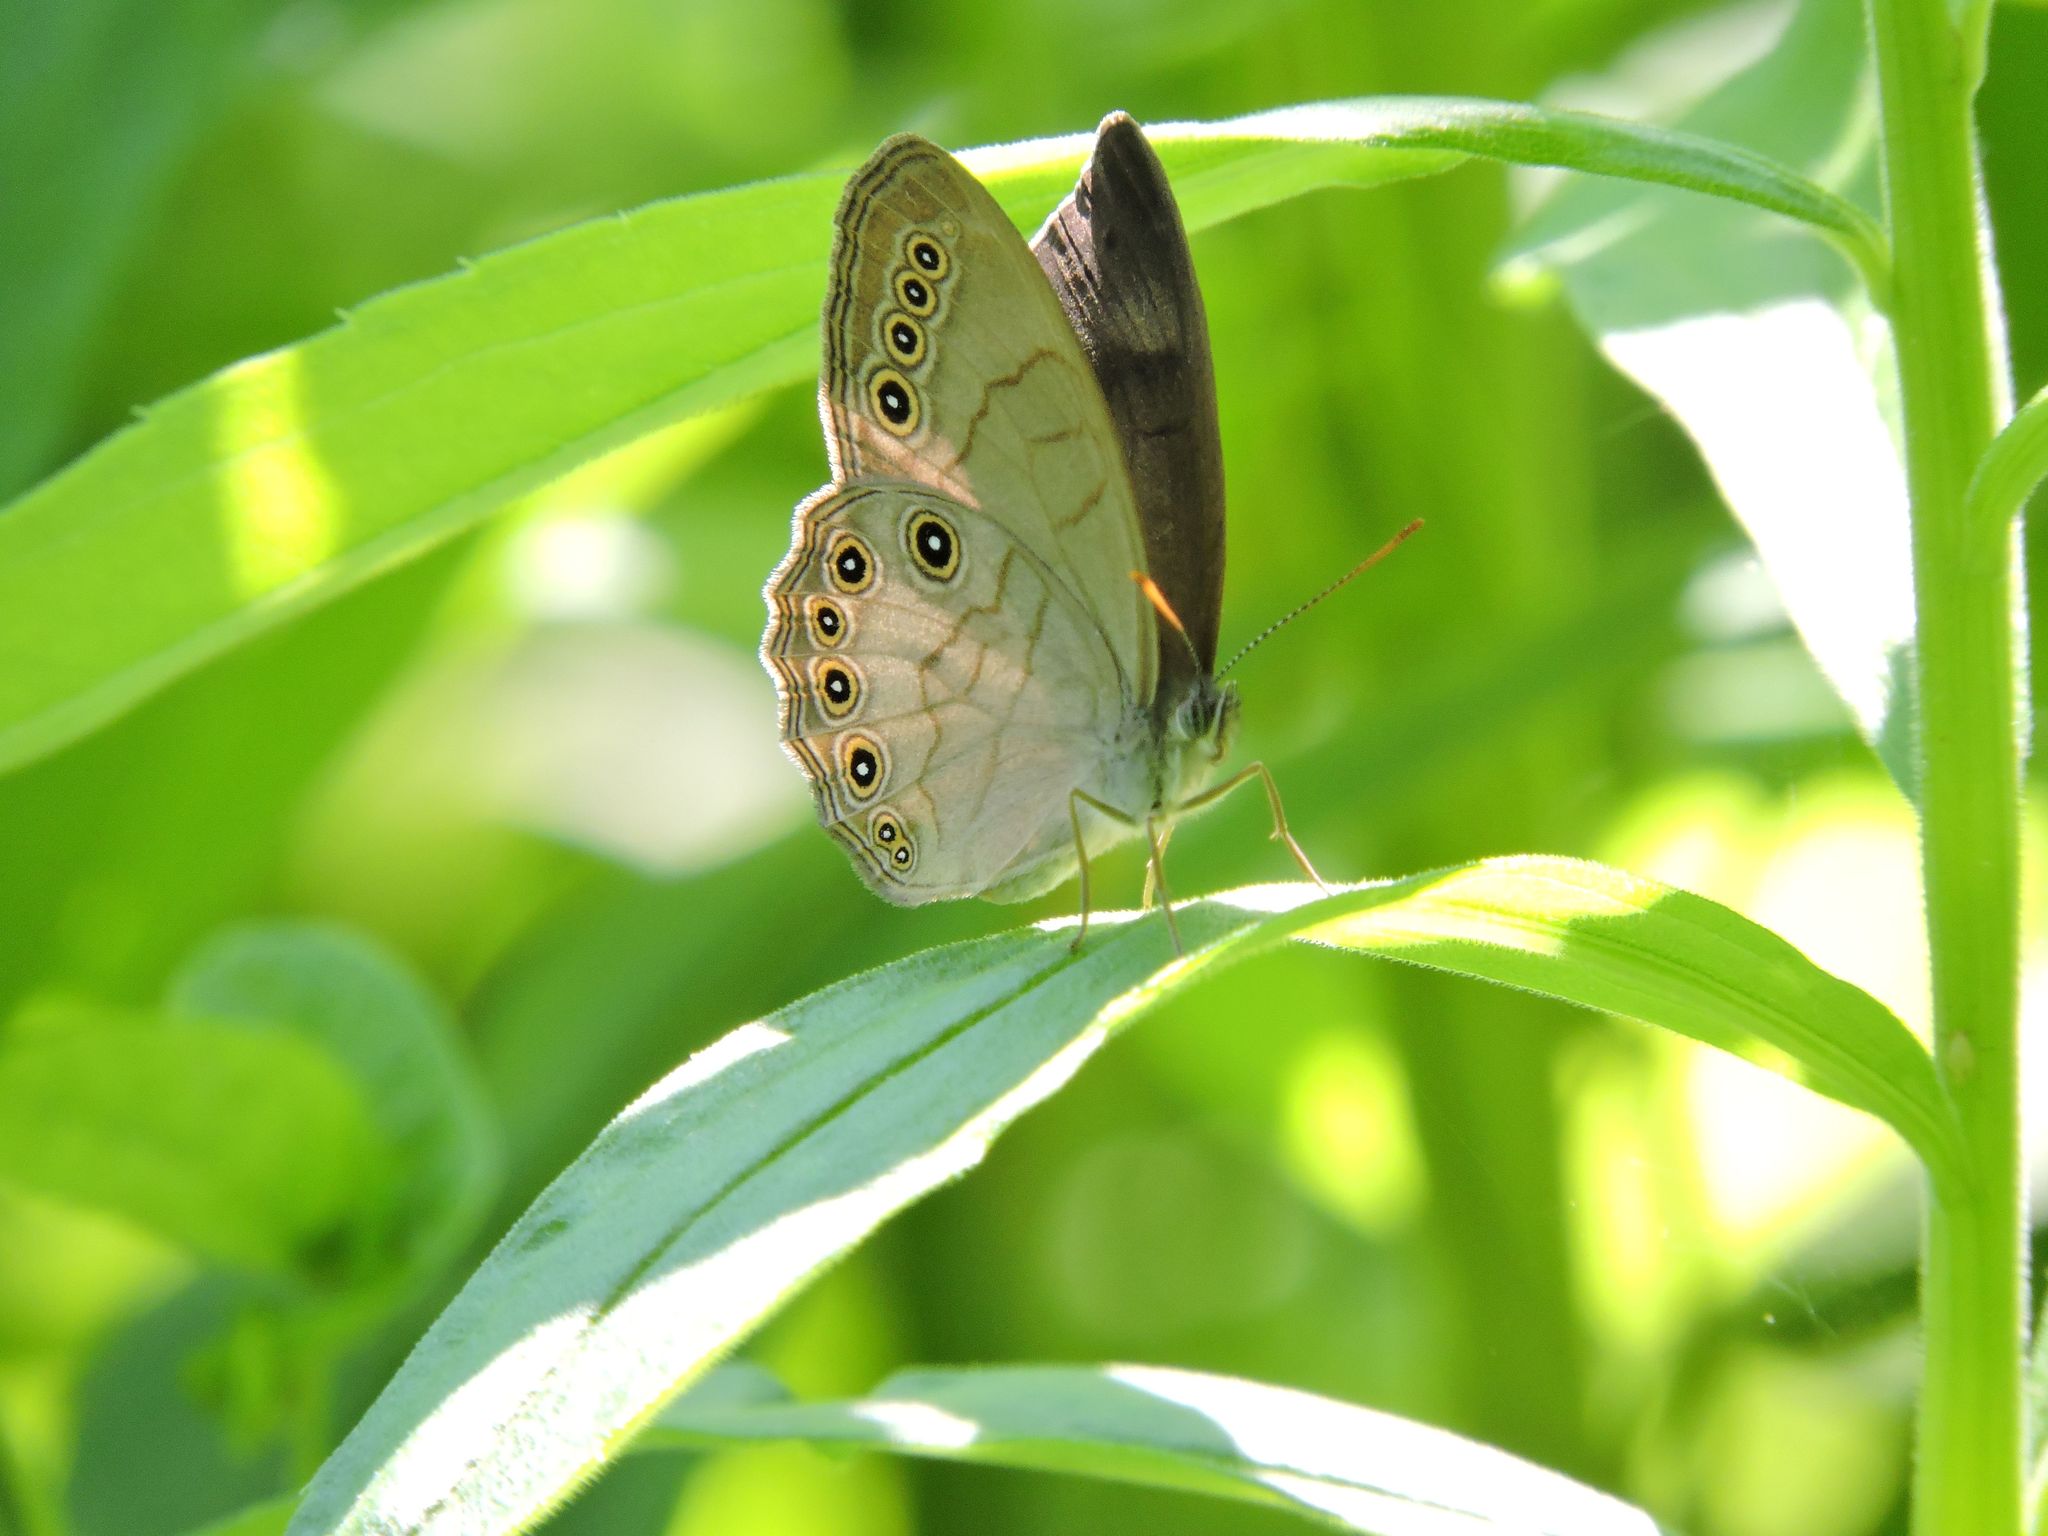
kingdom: Animalia
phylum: Arthropoda
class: Insecta
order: Lepidoptera
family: Nymphalidae
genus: Lethe
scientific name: Lethe eurydice
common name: Eyed brown
